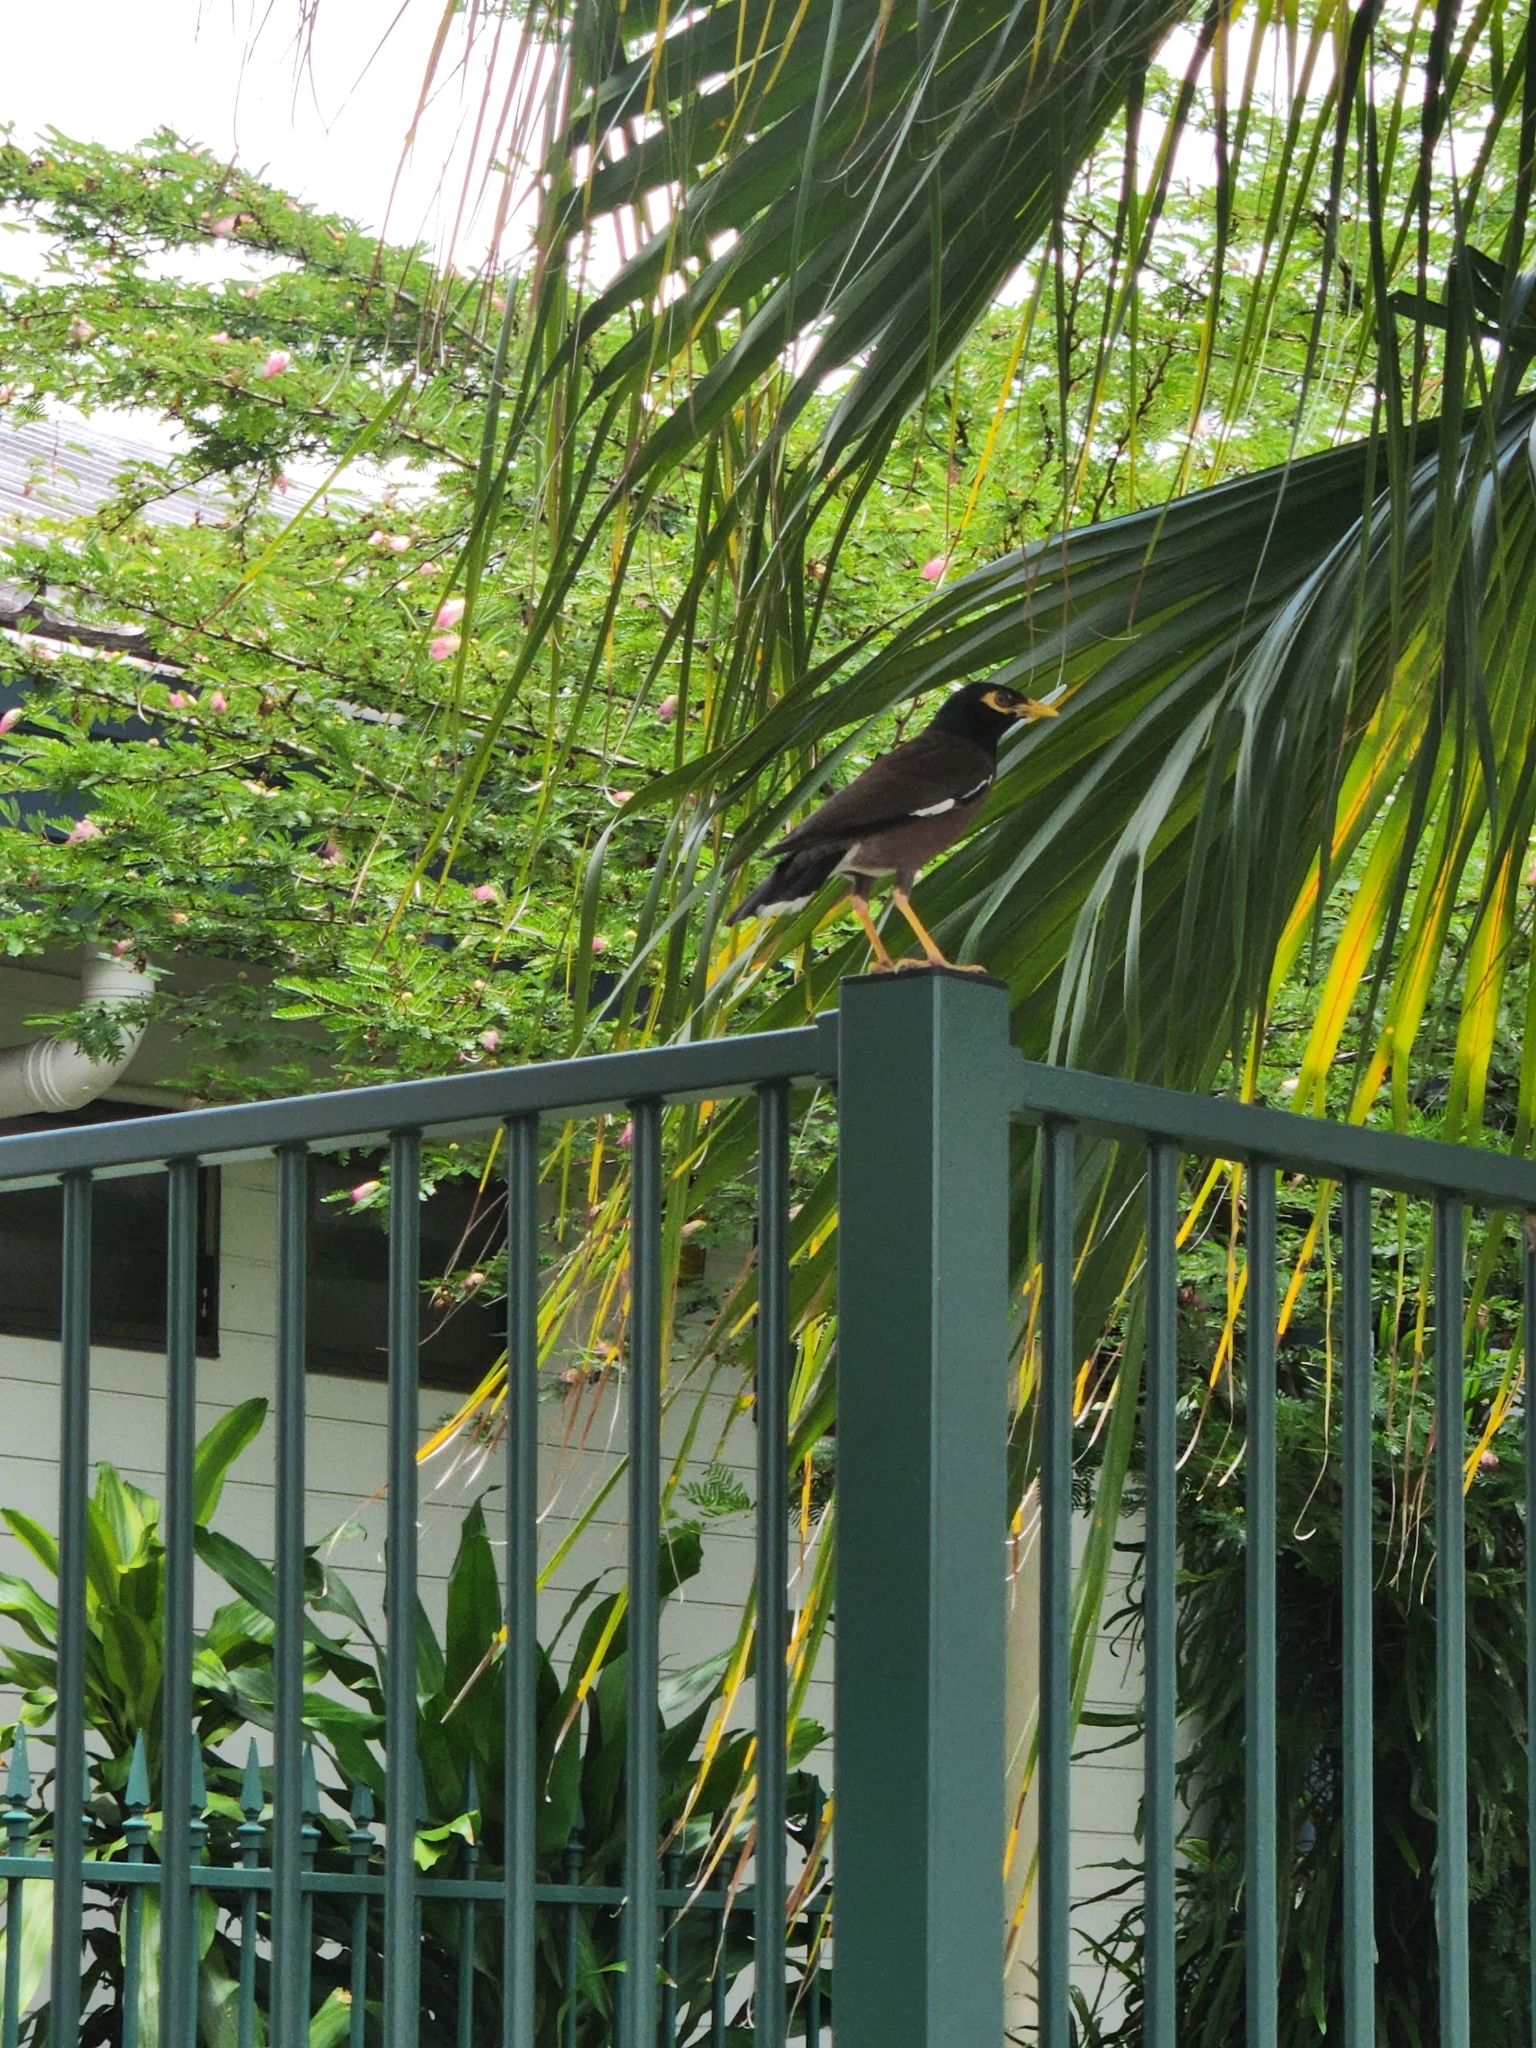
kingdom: Animalia
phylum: Chordata
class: Aves
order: Passeriformes
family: Sturnidae
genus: Acridotheres
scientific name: Acridotheres tristis
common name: Common myna
